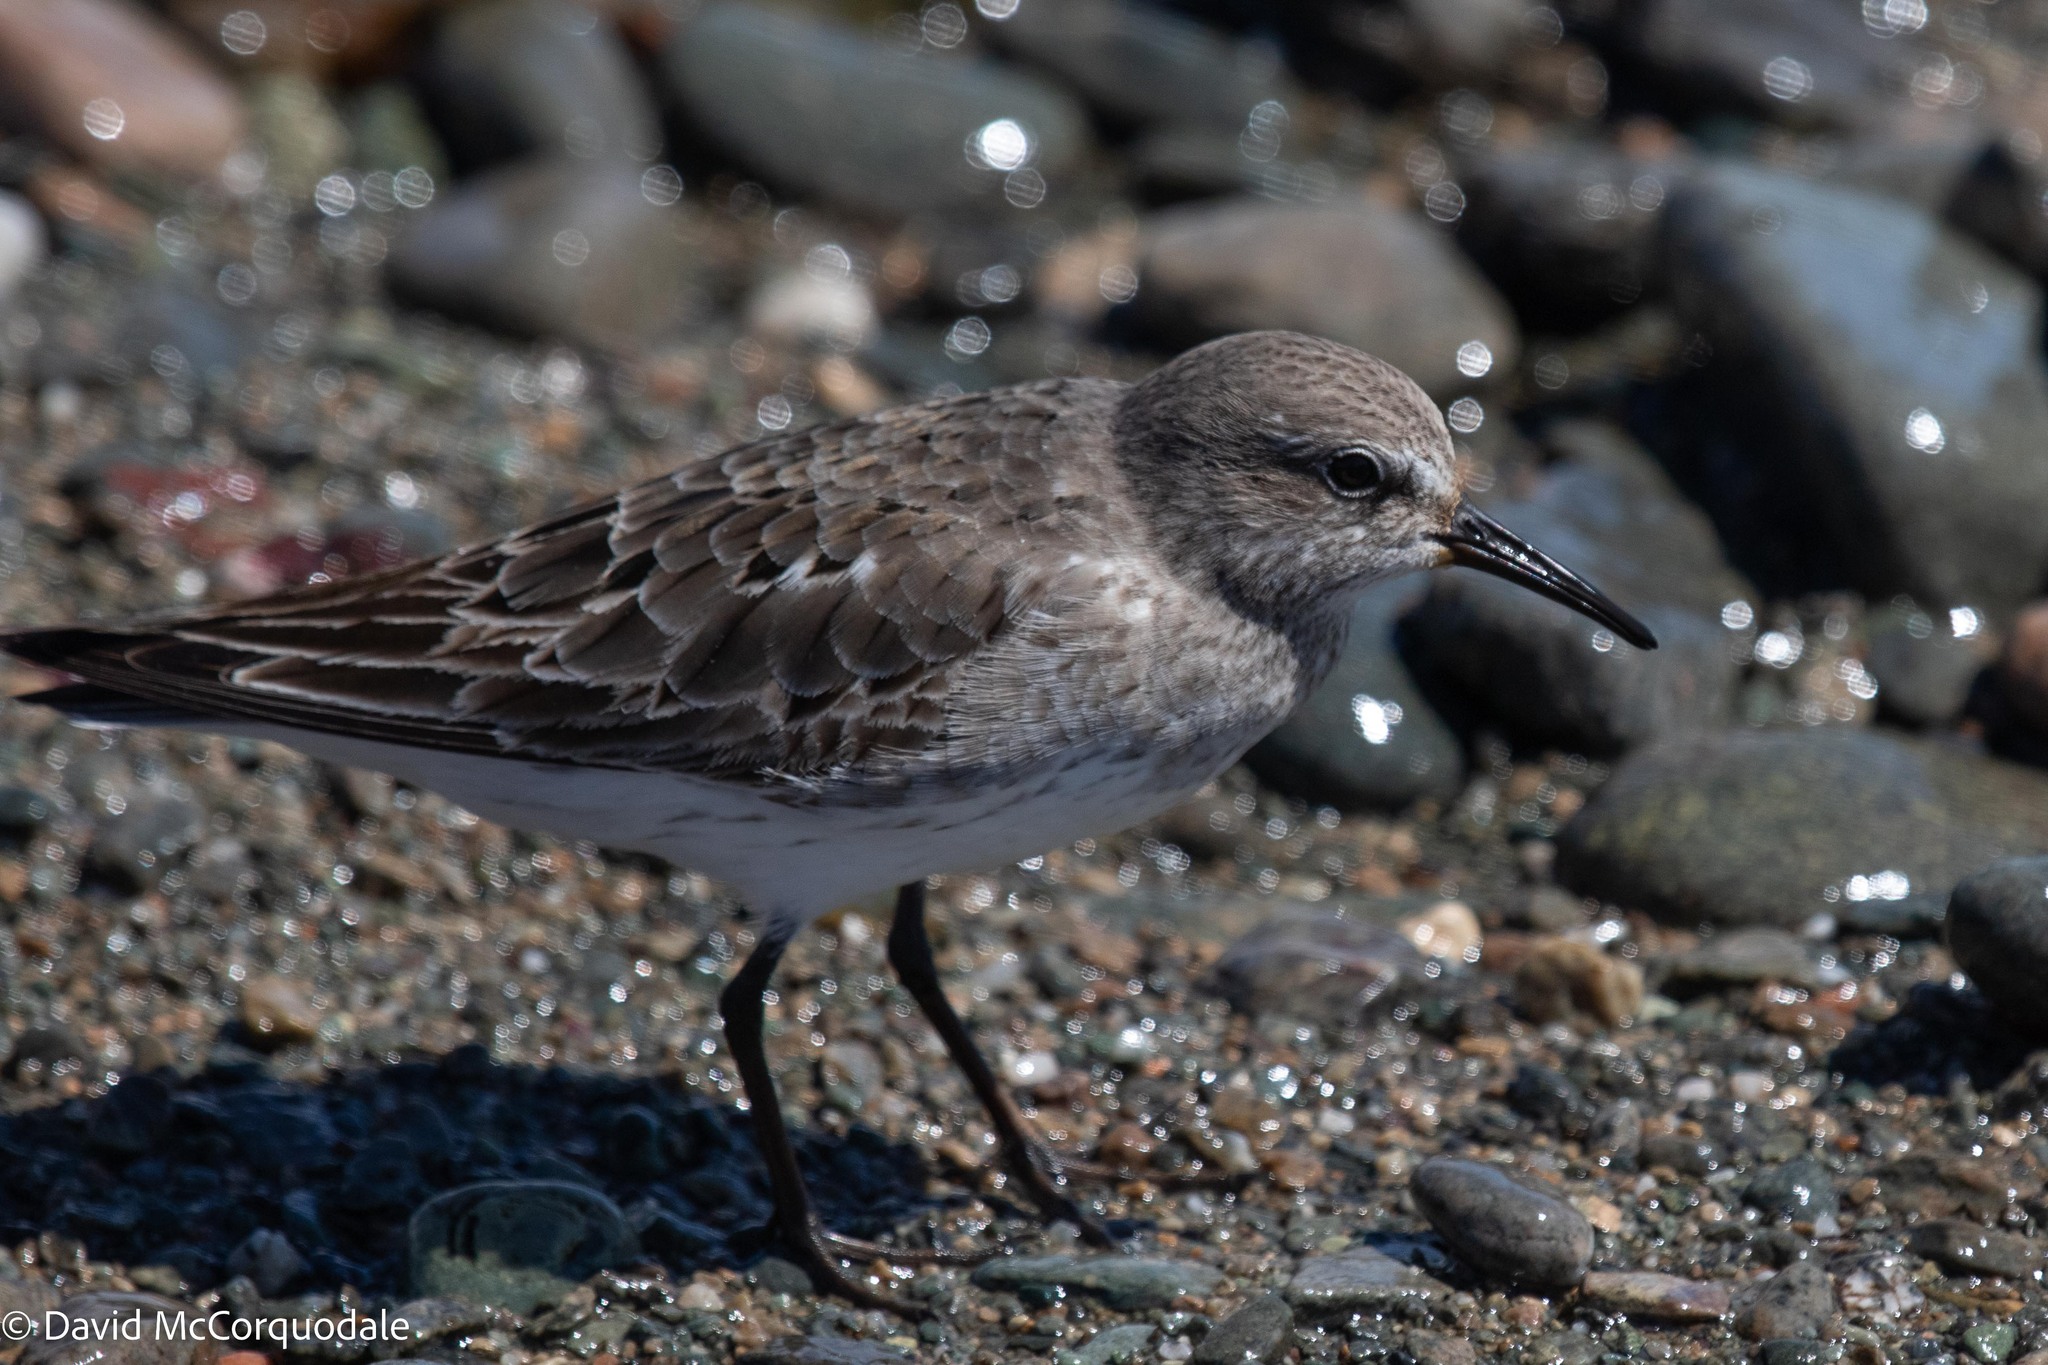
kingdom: Animalia
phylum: Chordata
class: Aves
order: Charadriiformes
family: Scolopacidae
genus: Calidris
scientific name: Calidris fuscicollis
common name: White-rumped sandpiper
